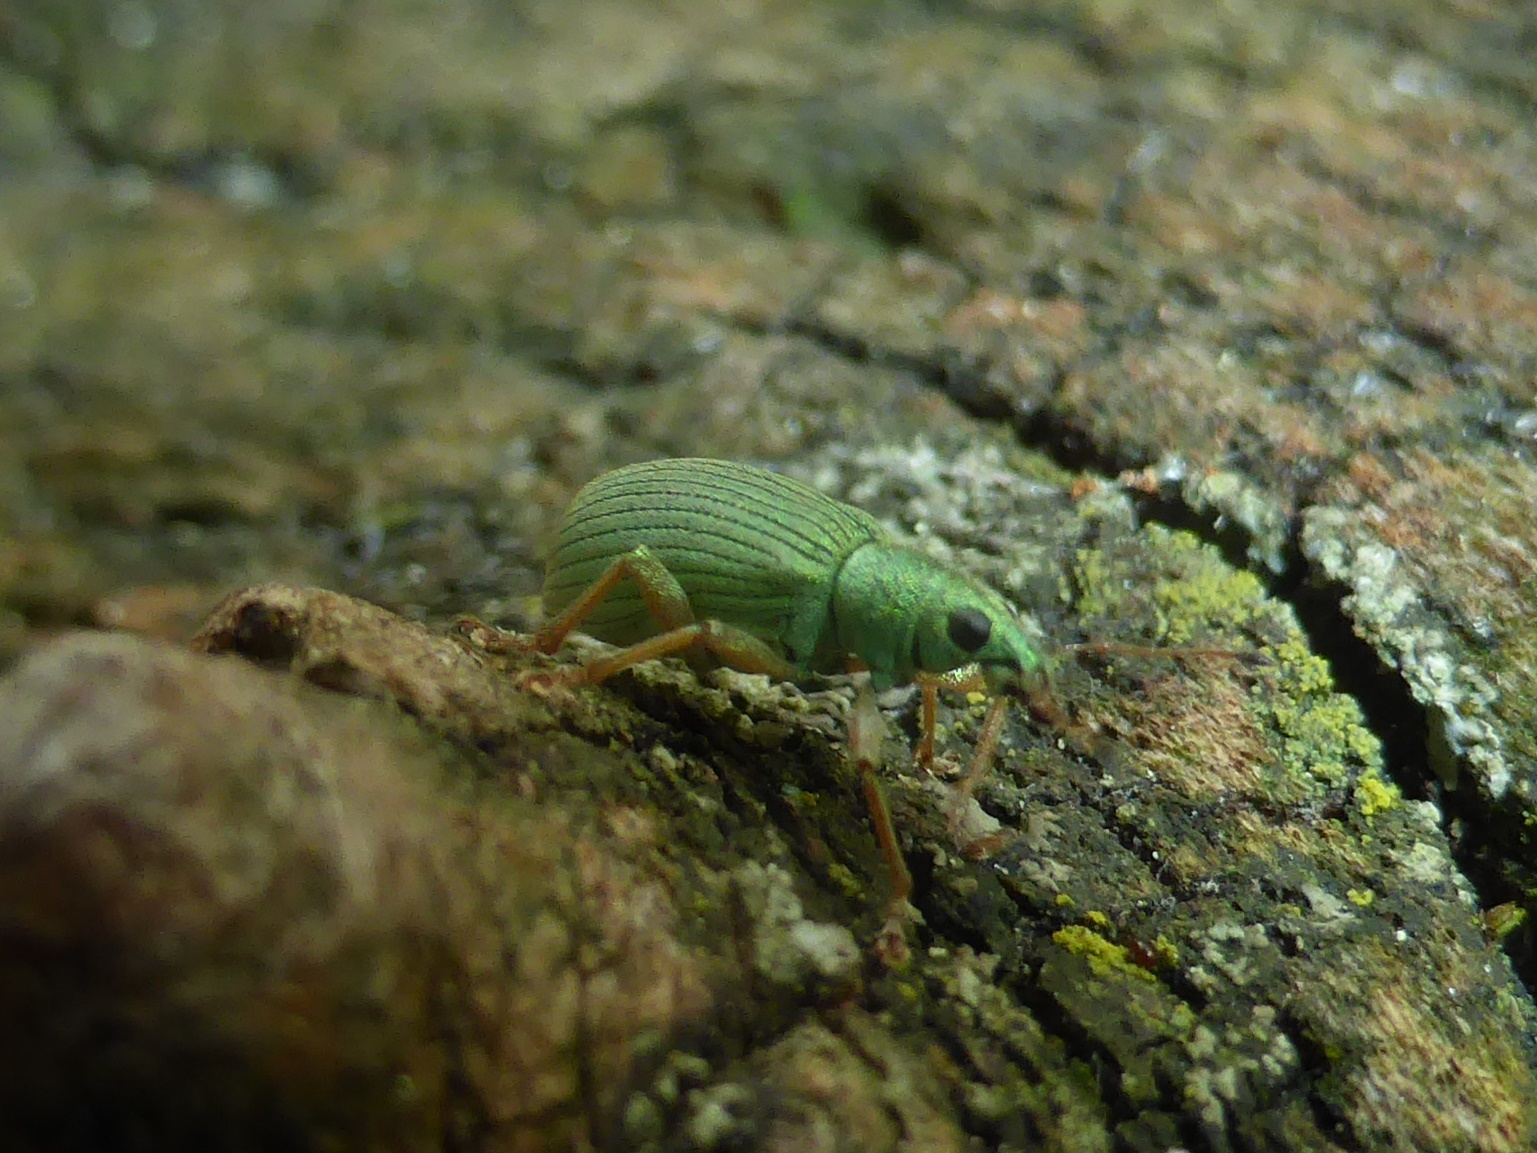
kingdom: Animalia
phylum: Arthropoda
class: Insecta
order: Coleoptera
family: Curculionidae
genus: Polydrusus
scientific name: Polydrusus formosus
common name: Weevil
